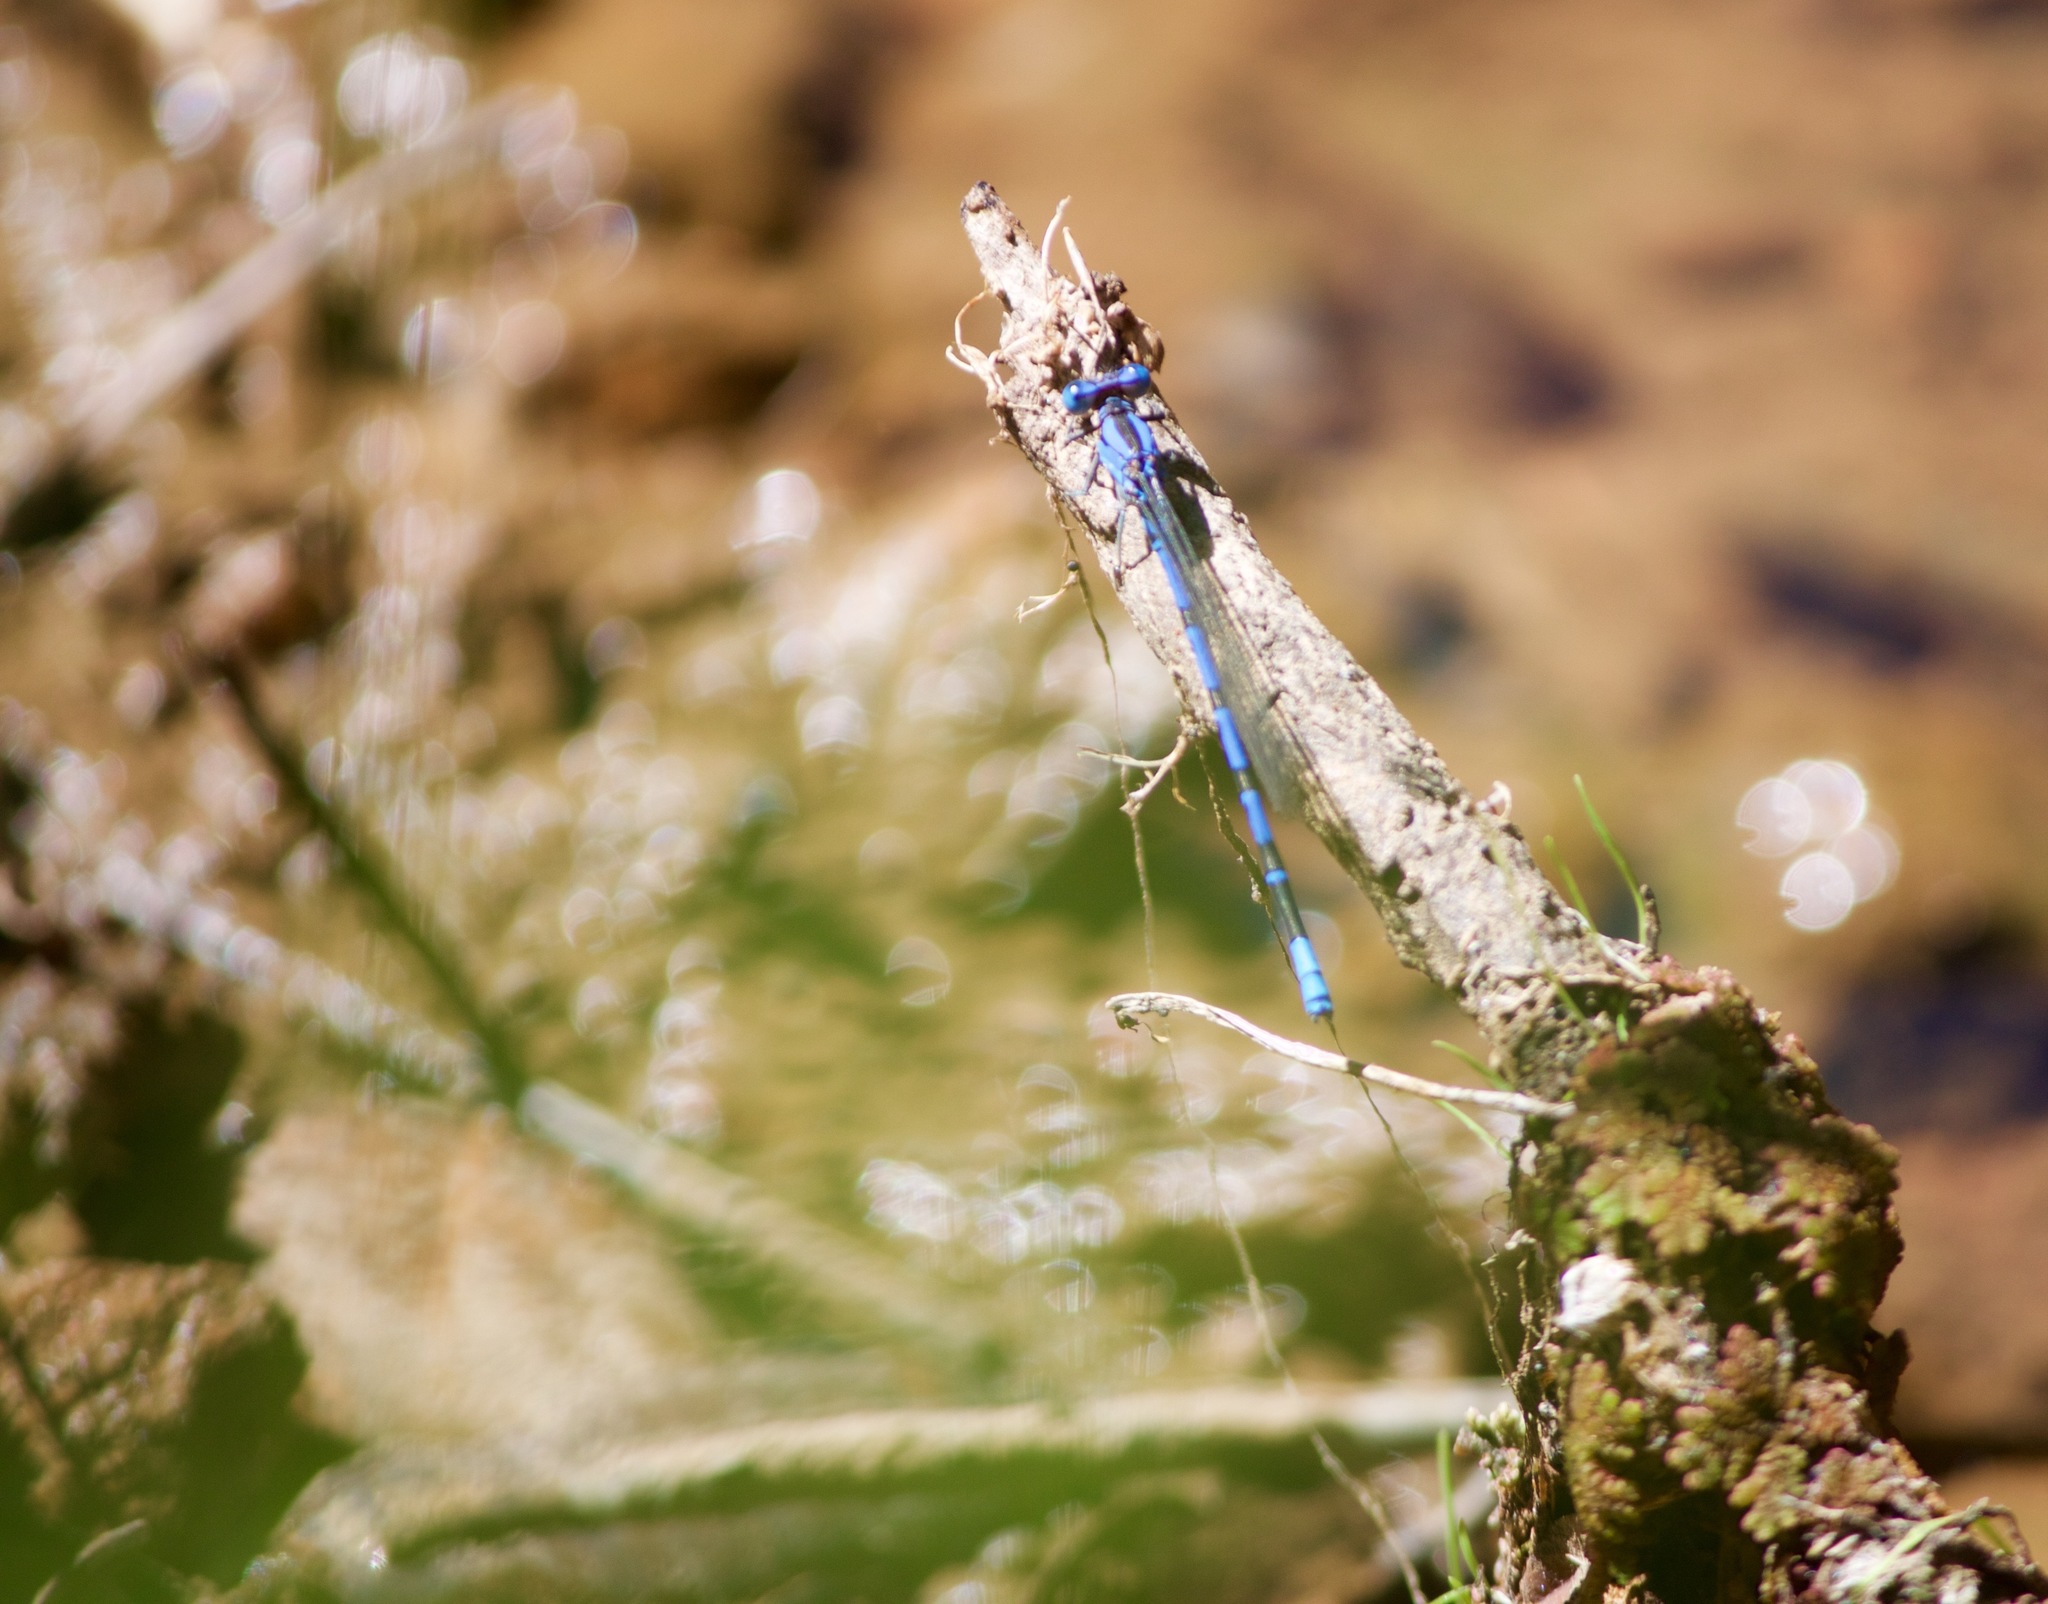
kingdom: Animalia
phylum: Arthropoda
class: Insecta
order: Odonata
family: Coenagrionidae
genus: Argia
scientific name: Argia vivida
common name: Vivid dancer
